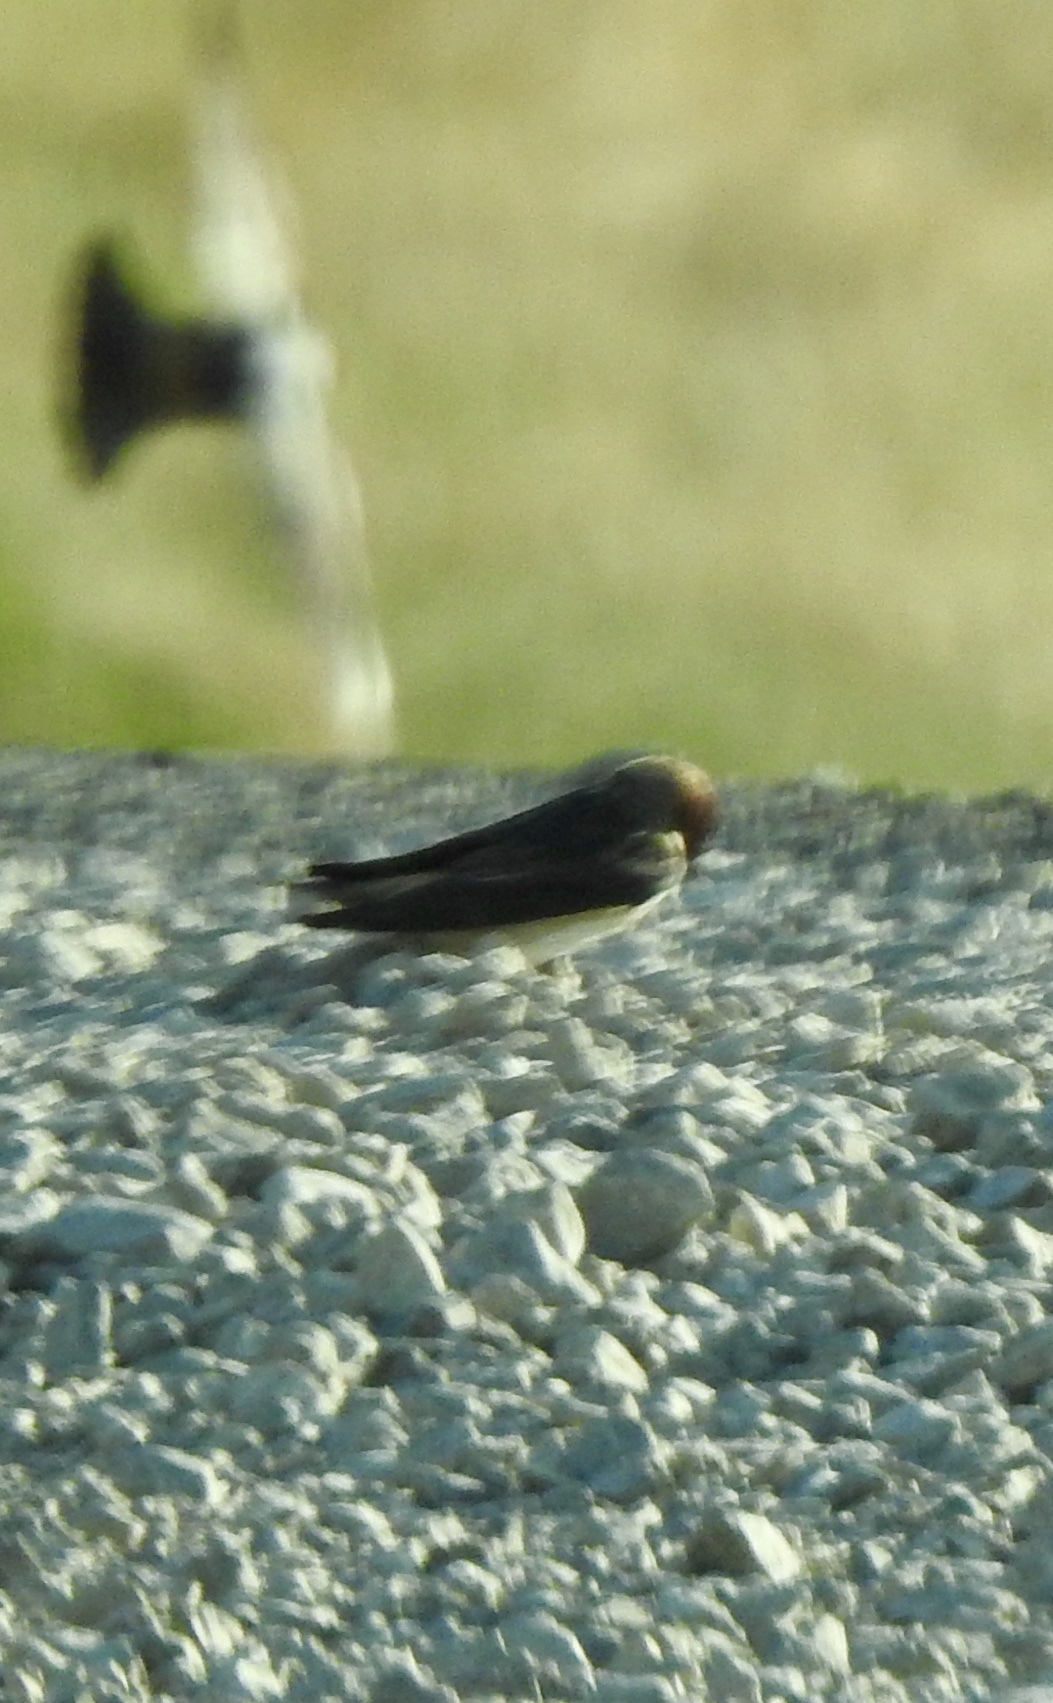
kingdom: Animalia
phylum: Chordata
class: Aves
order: Passeriformes
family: Hirundinidae
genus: Hirundo
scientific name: Hirundo rustica
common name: Barn swallow
